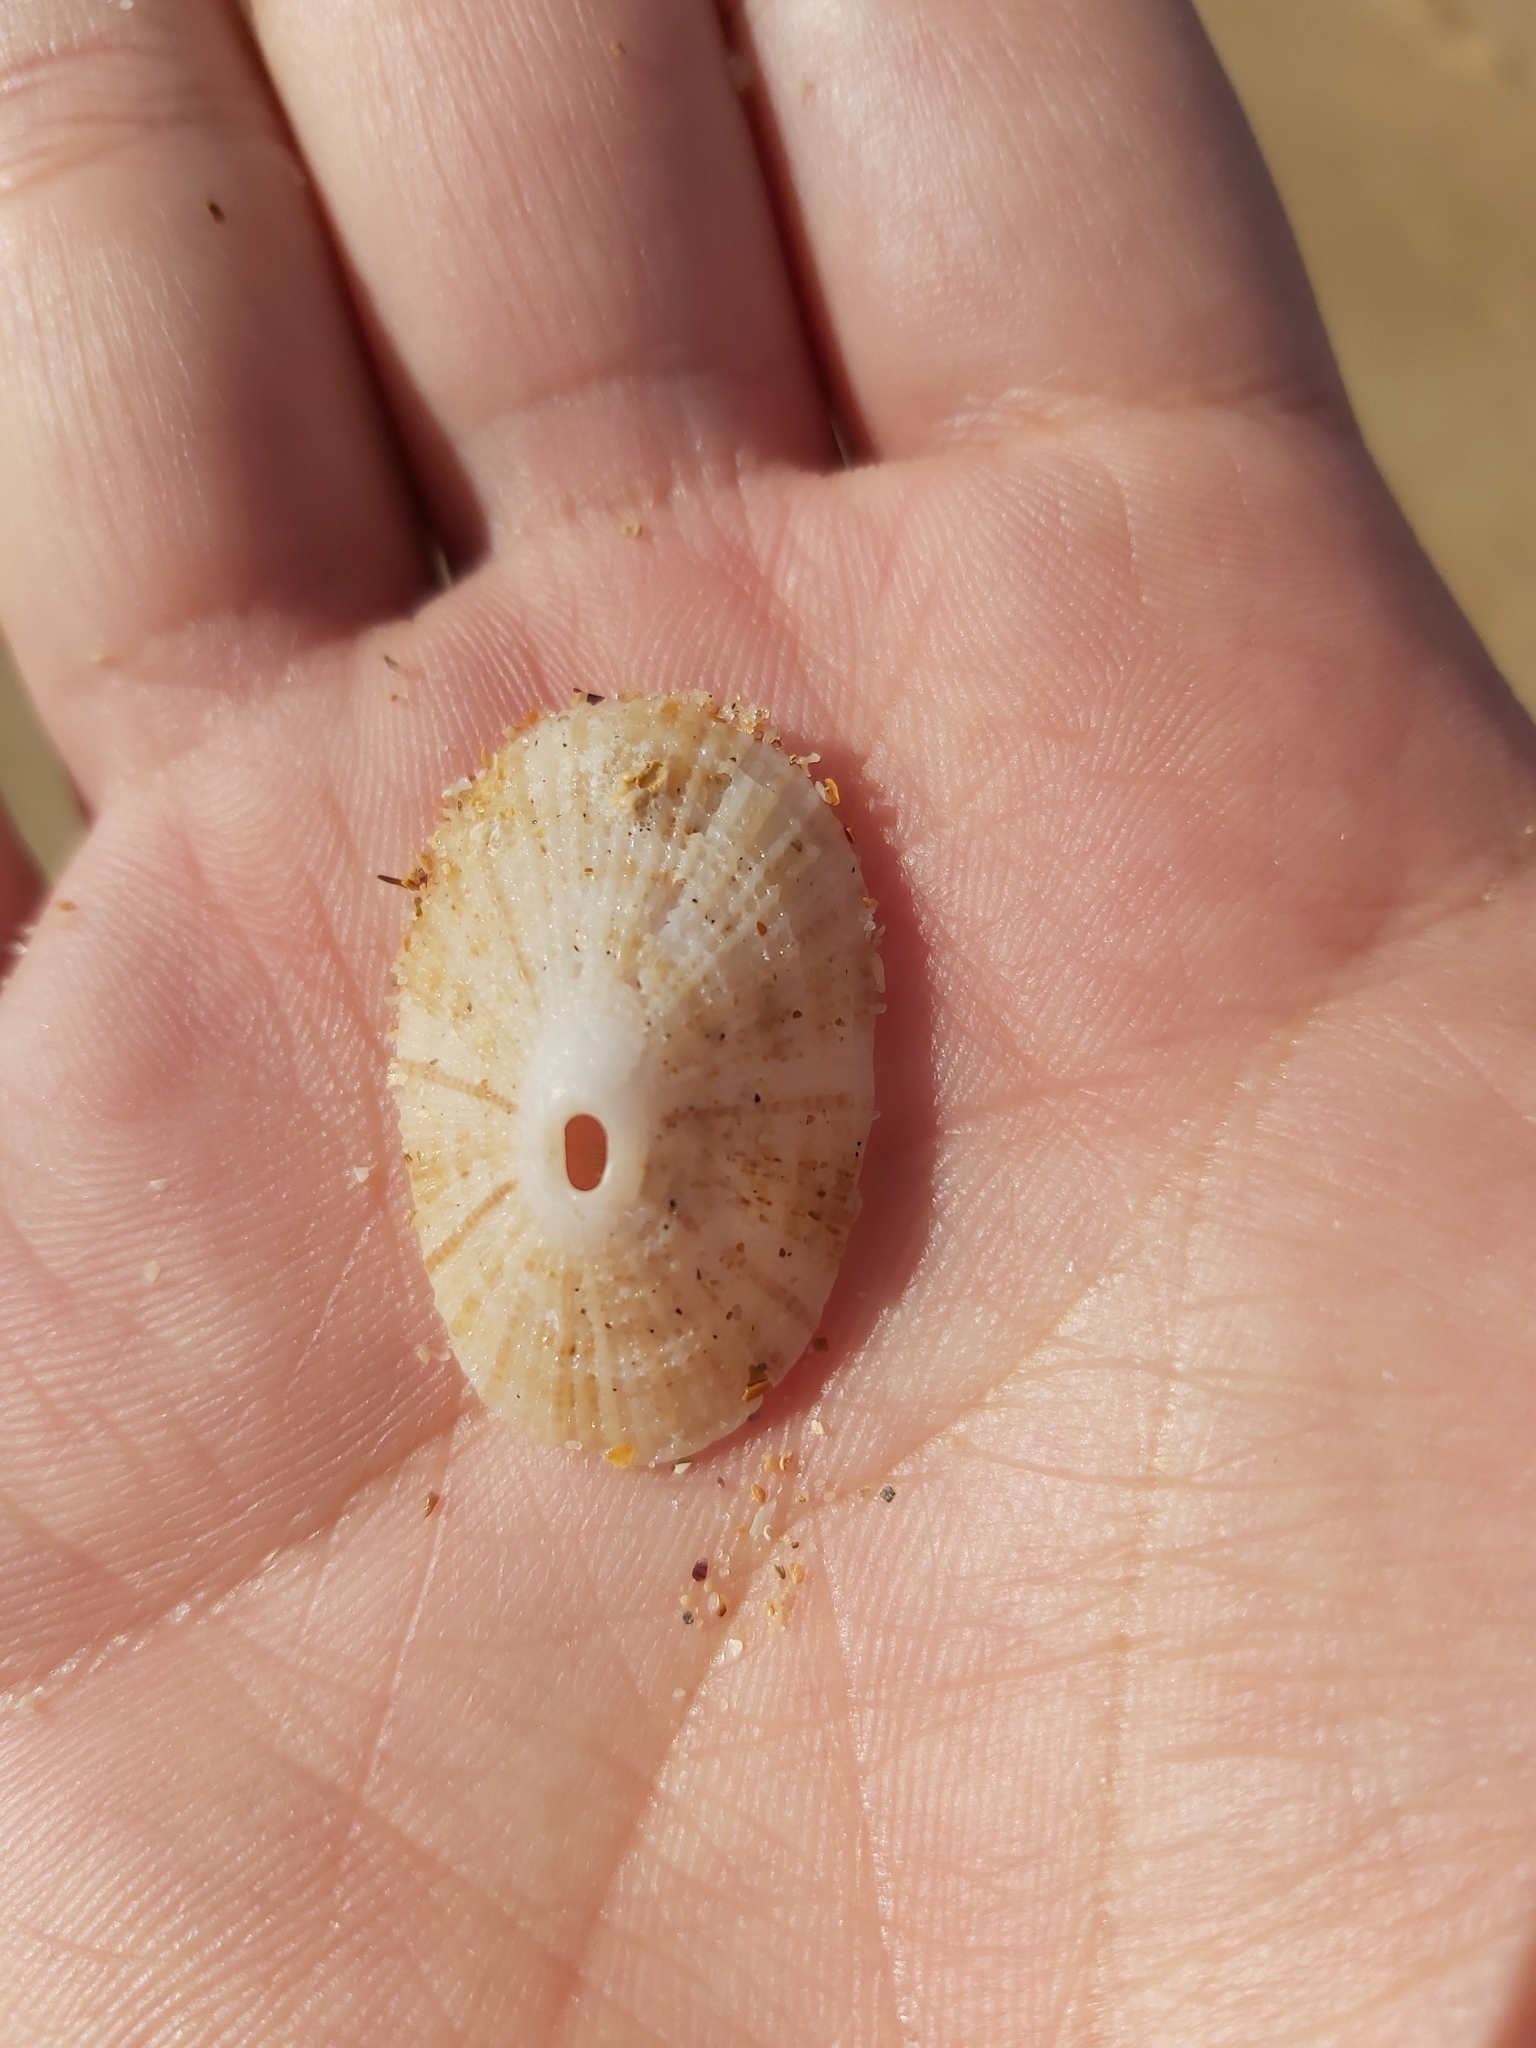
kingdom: Animalia
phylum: Mollusca
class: Gastropoda
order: Lepetellida
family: Fissurellidae
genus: Diodora
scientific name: Diodora lineata
